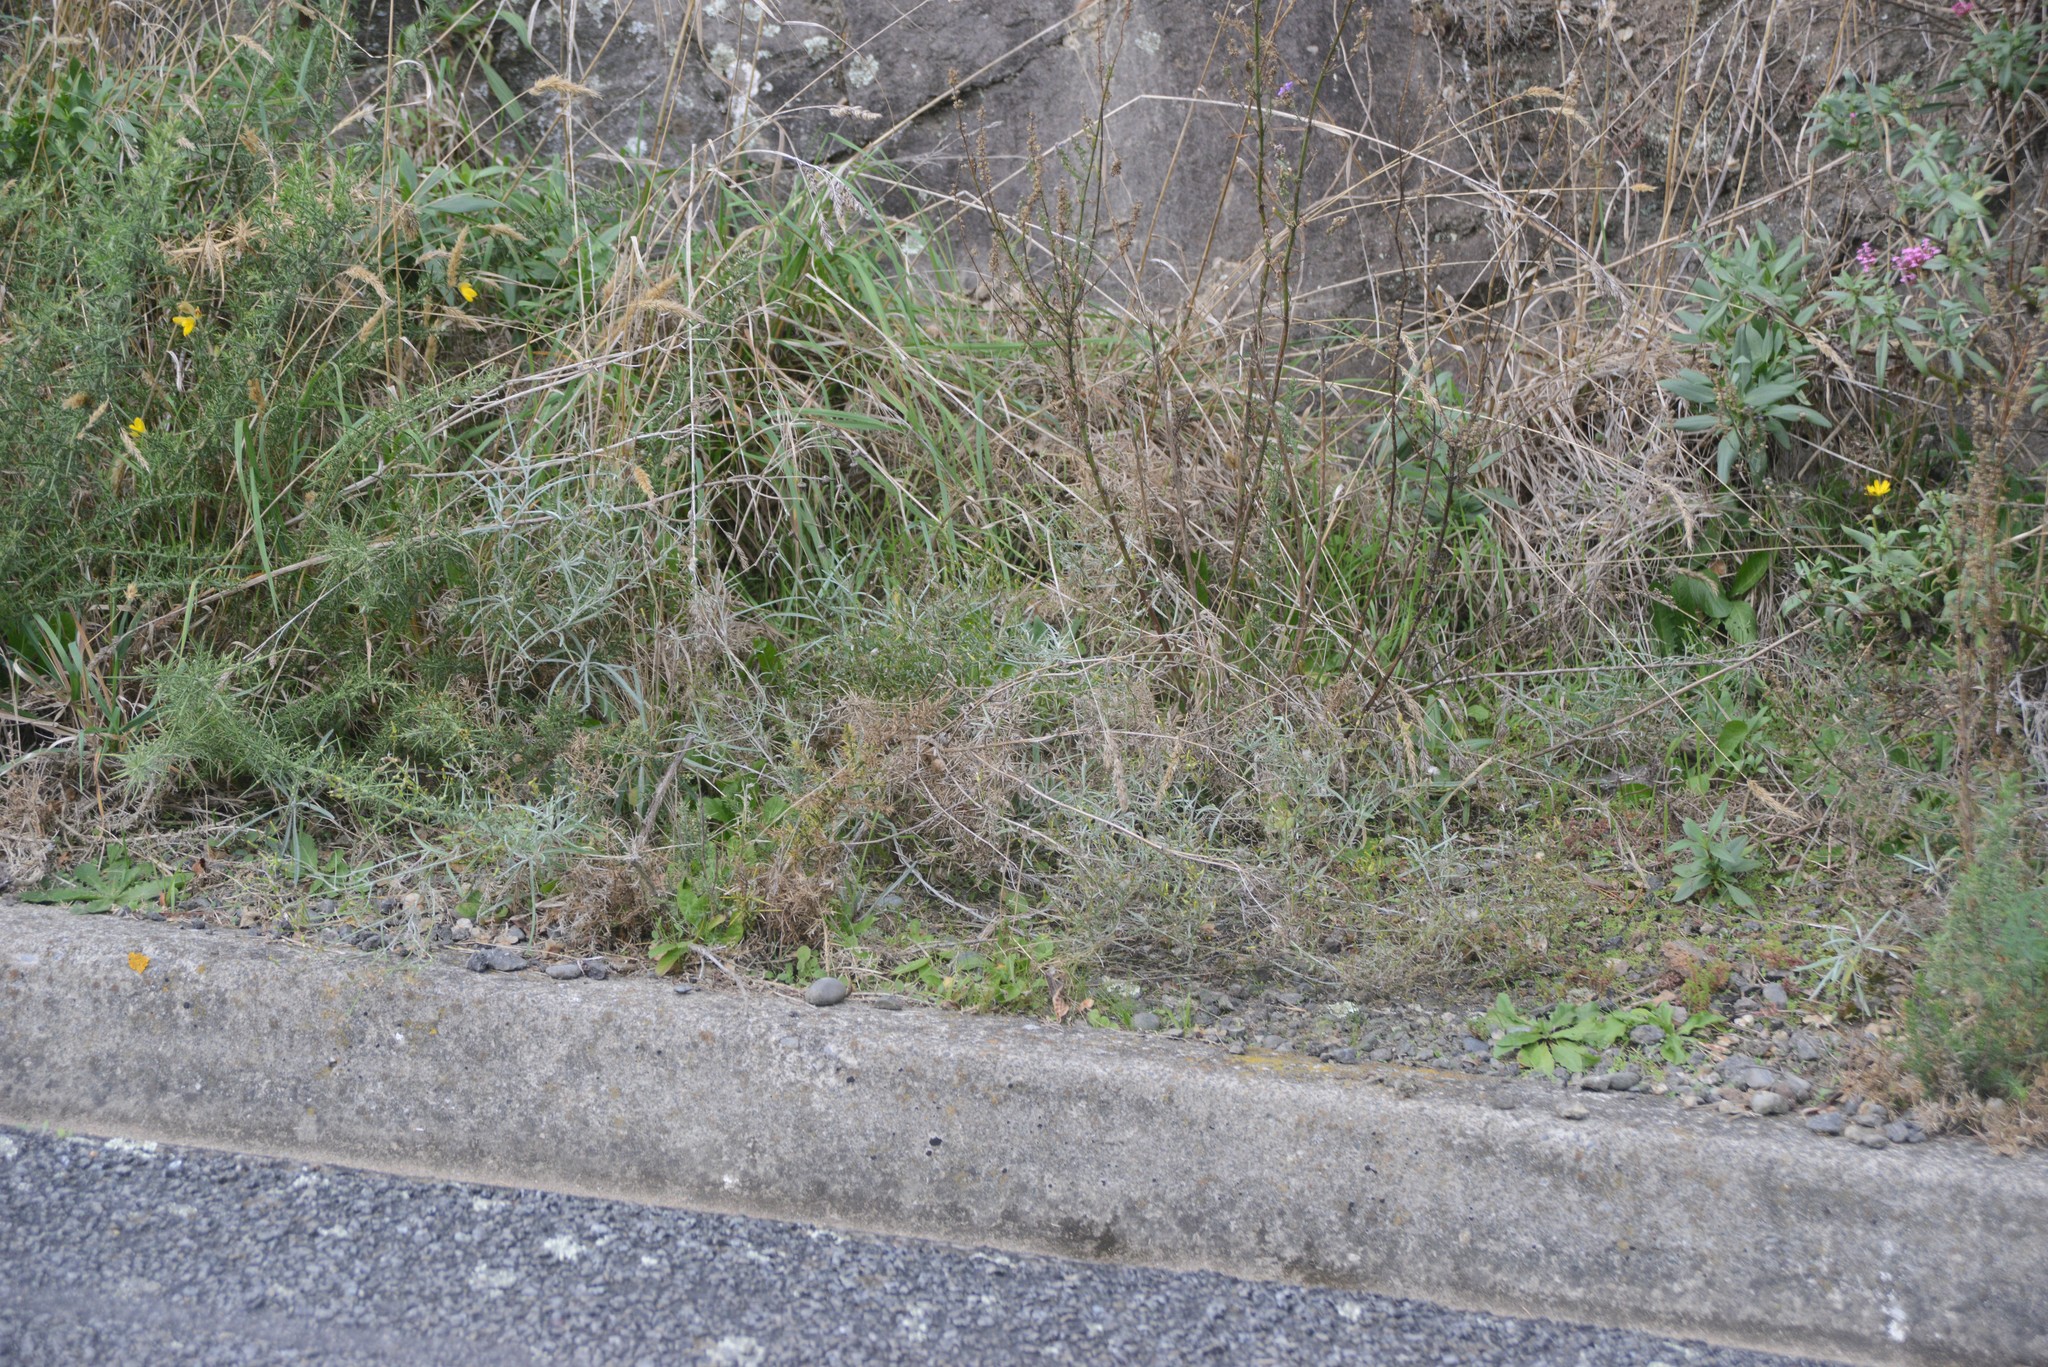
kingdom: Plantae
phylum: Tracheophyta
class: Magnoliopsida
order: Asterales
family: Asteraceae
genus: Senecio
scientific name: Senecio quadridentatus
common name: Cotton fireweed
